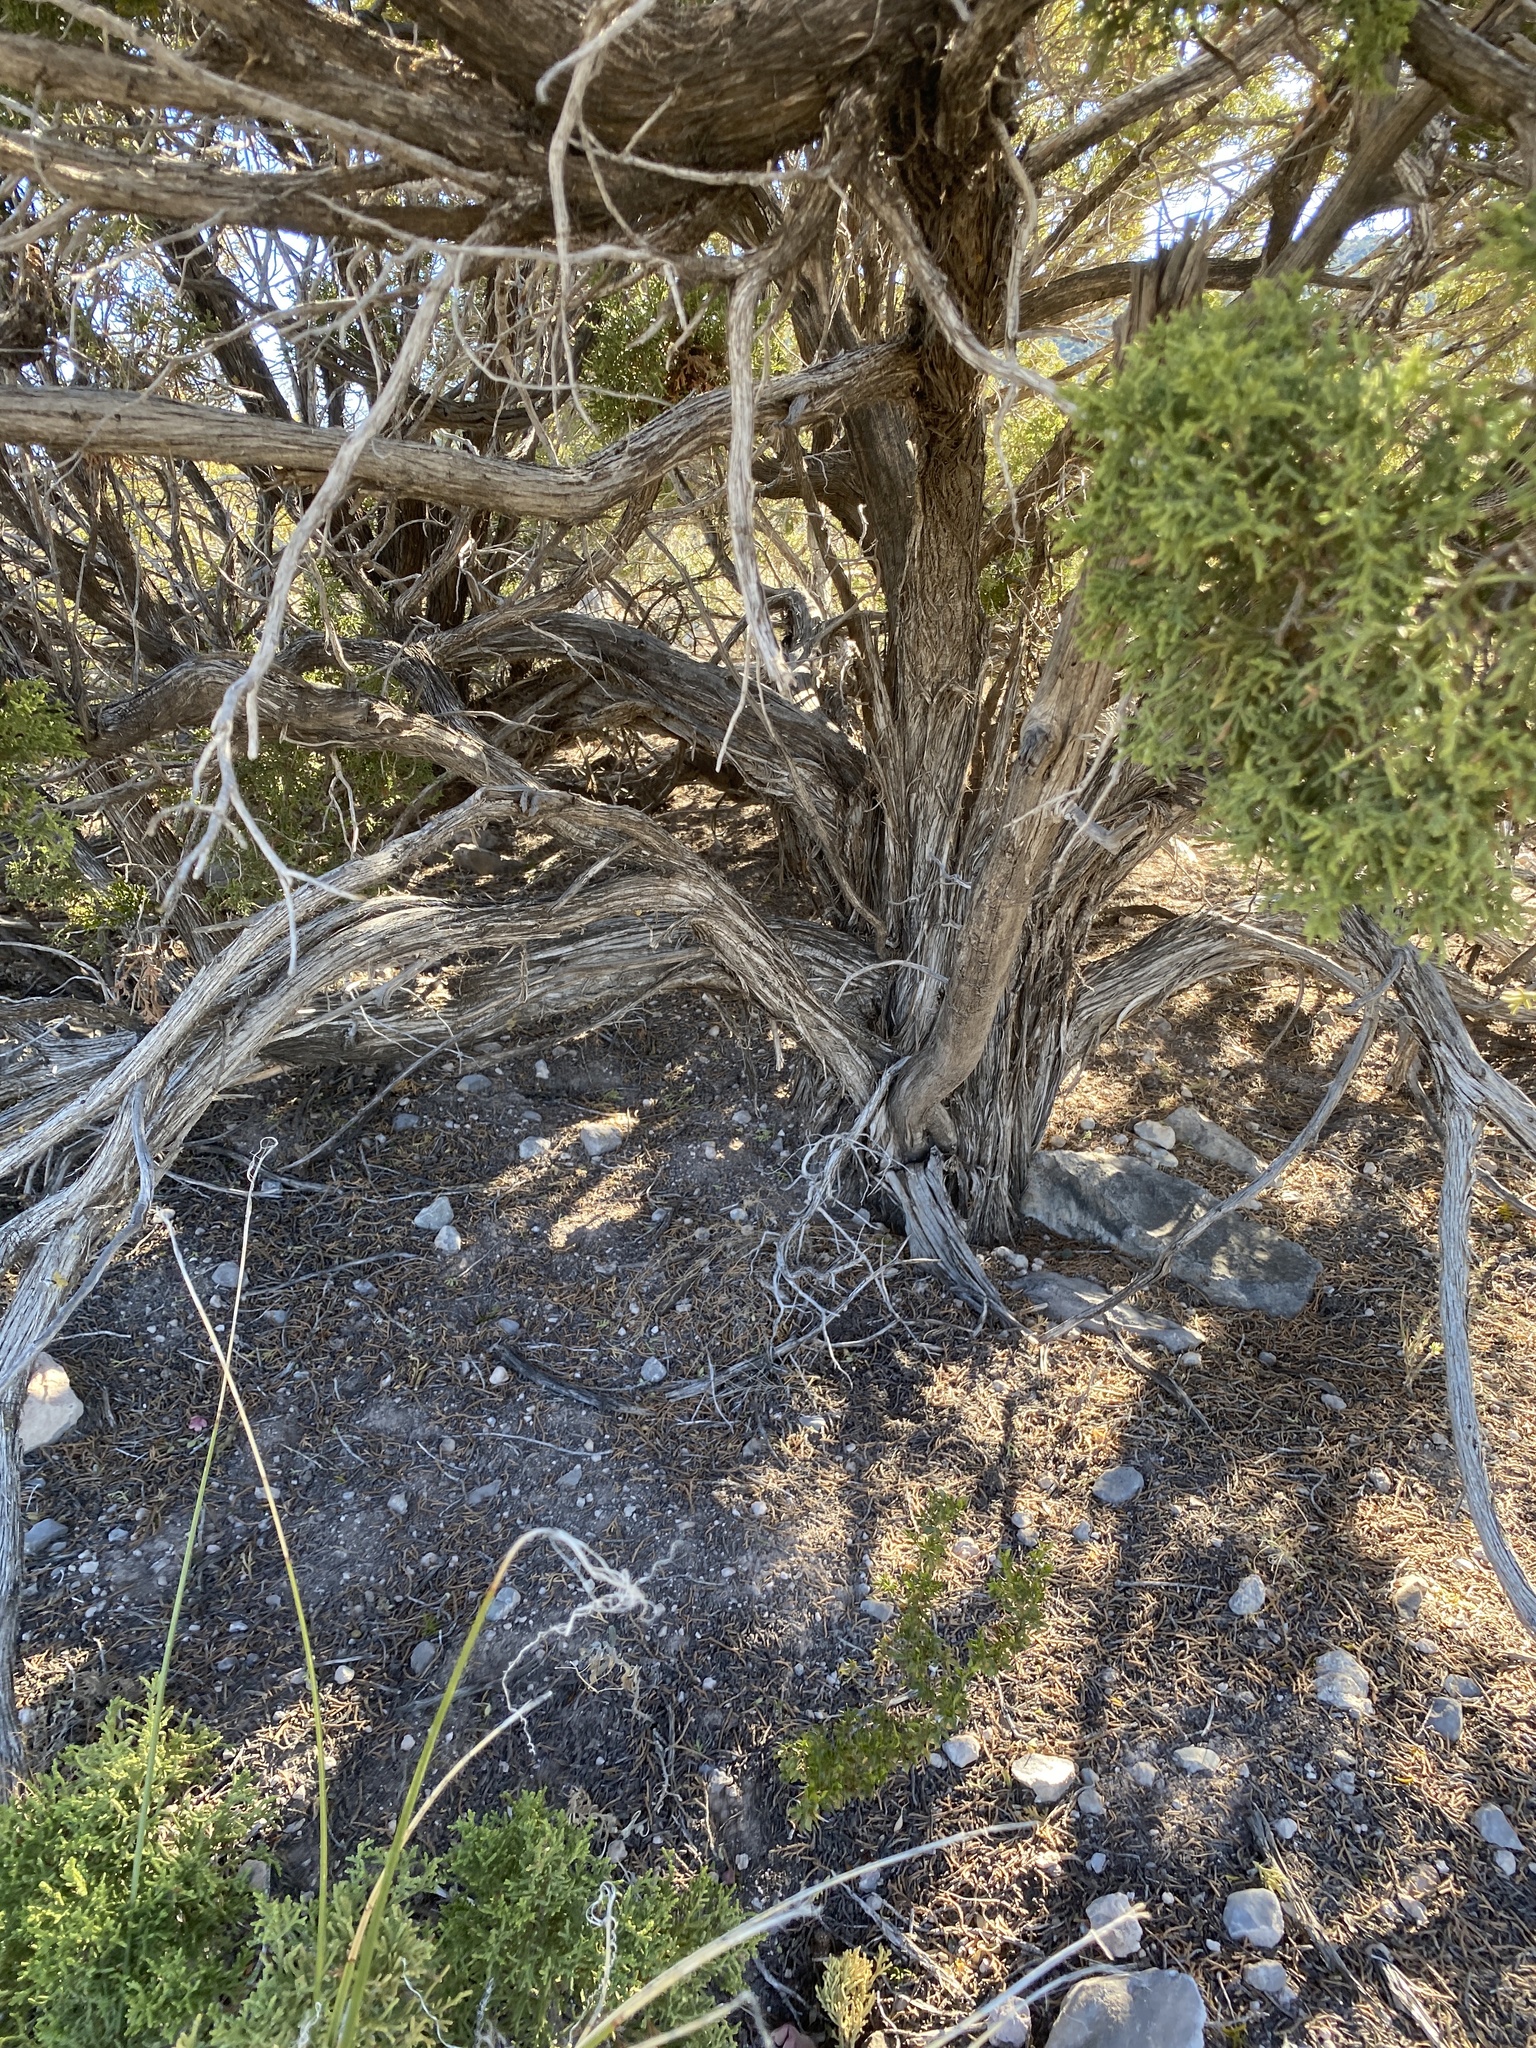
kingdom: Plantae
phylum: Tracheophyta
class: Pinopsida
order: Pinales
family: Cupressaceae
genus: Juniperus
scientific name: Juniperus monosperma
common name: One-seed juniper
